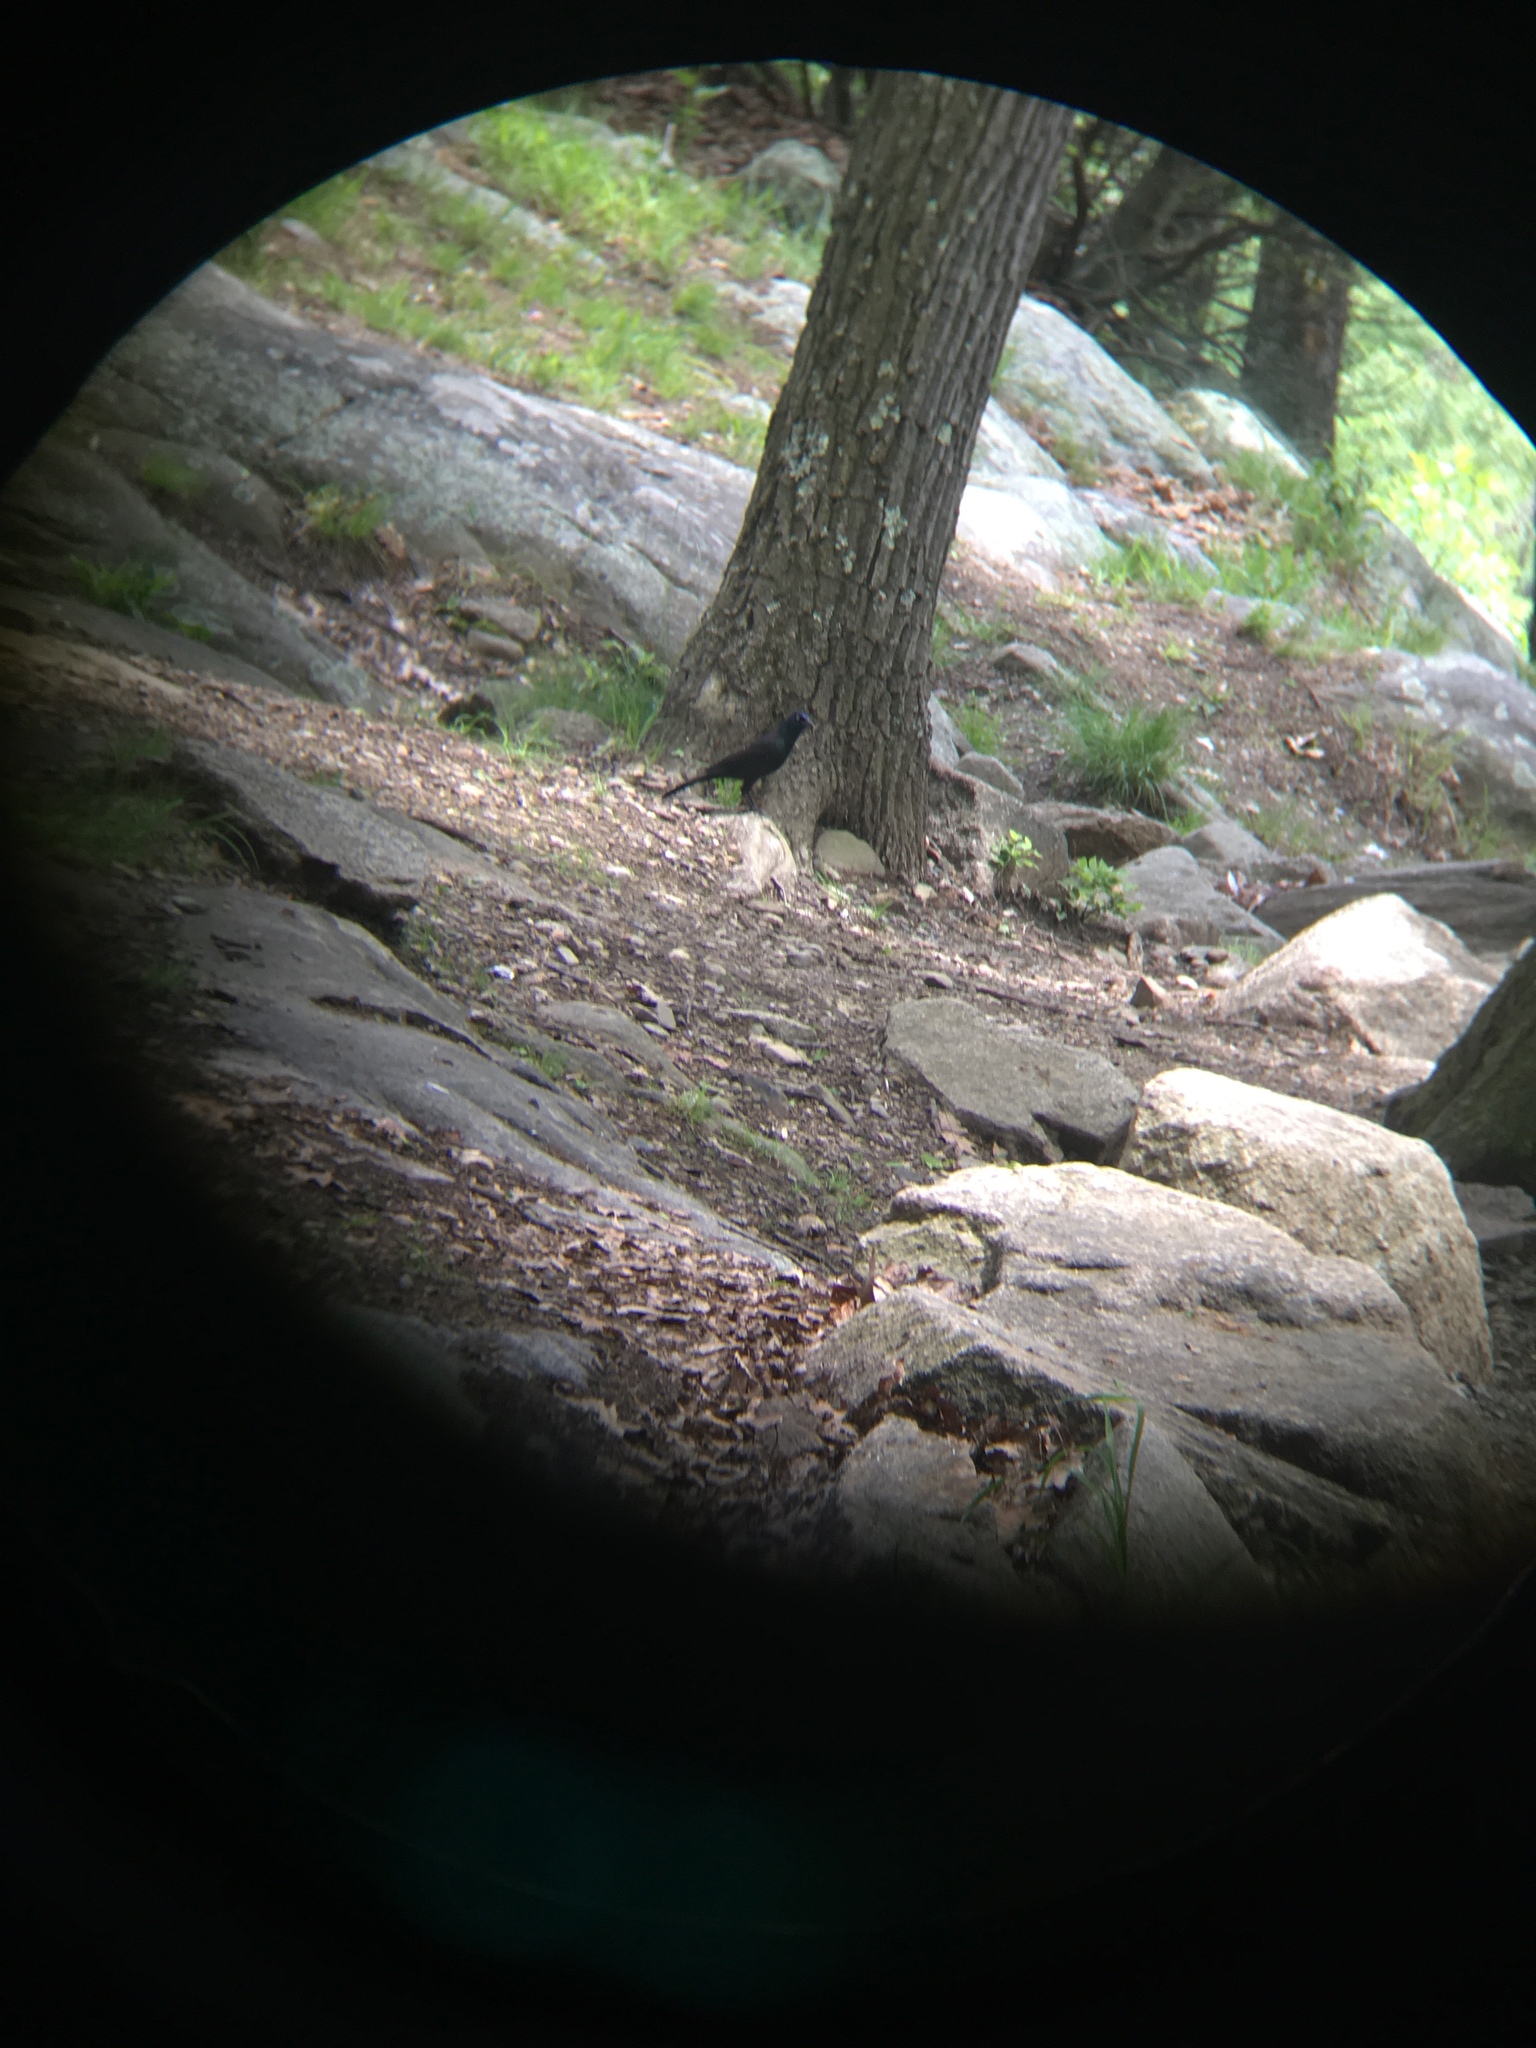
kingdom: Animalia
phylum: Chordata
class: Aves
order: Passeriformes
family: Icteridae
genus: Quiscalus
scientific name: Quiscalus quiscula
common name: Common grackle
